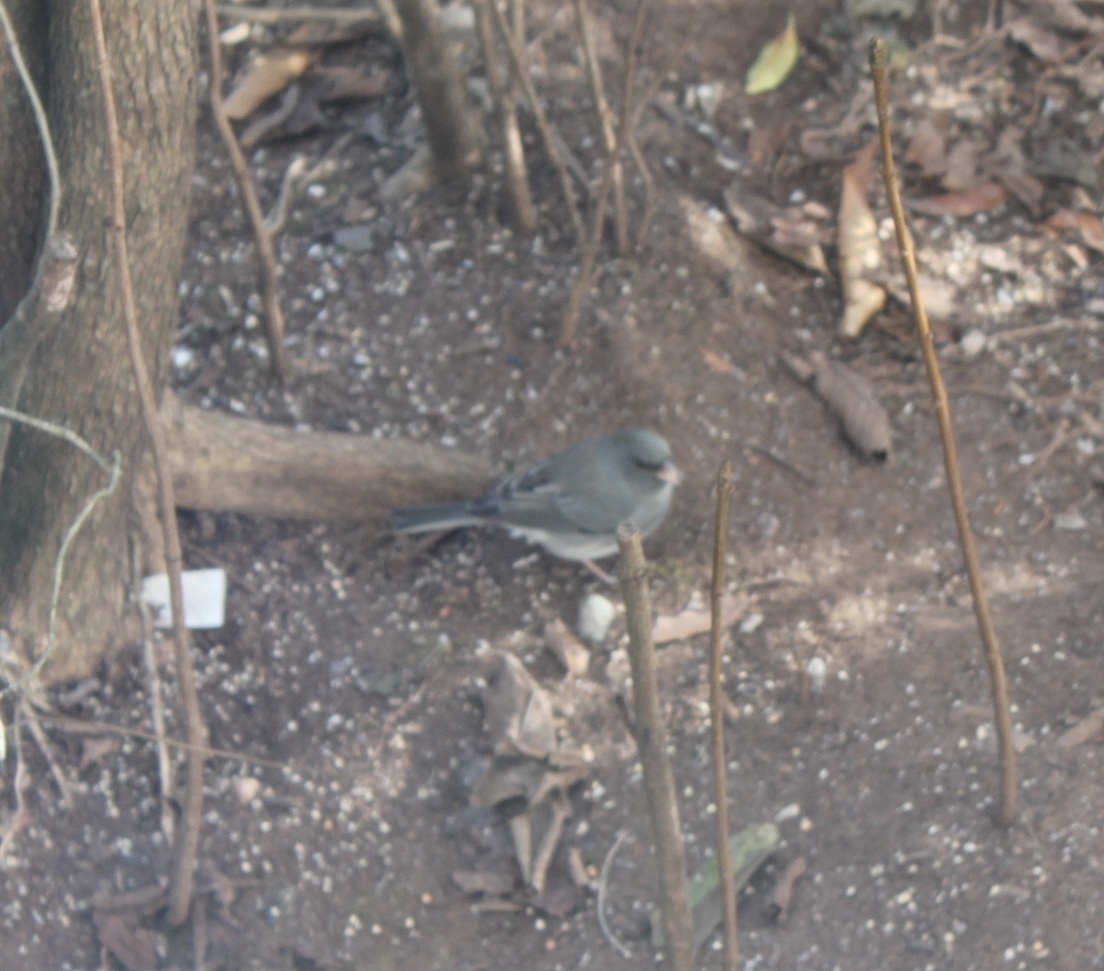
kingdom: Animalia
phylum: Chordata
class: Aves
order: Passeriformes
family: Passerellidae
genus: Junco
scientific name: Junco hyemalis
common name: Dark-eyed junco
